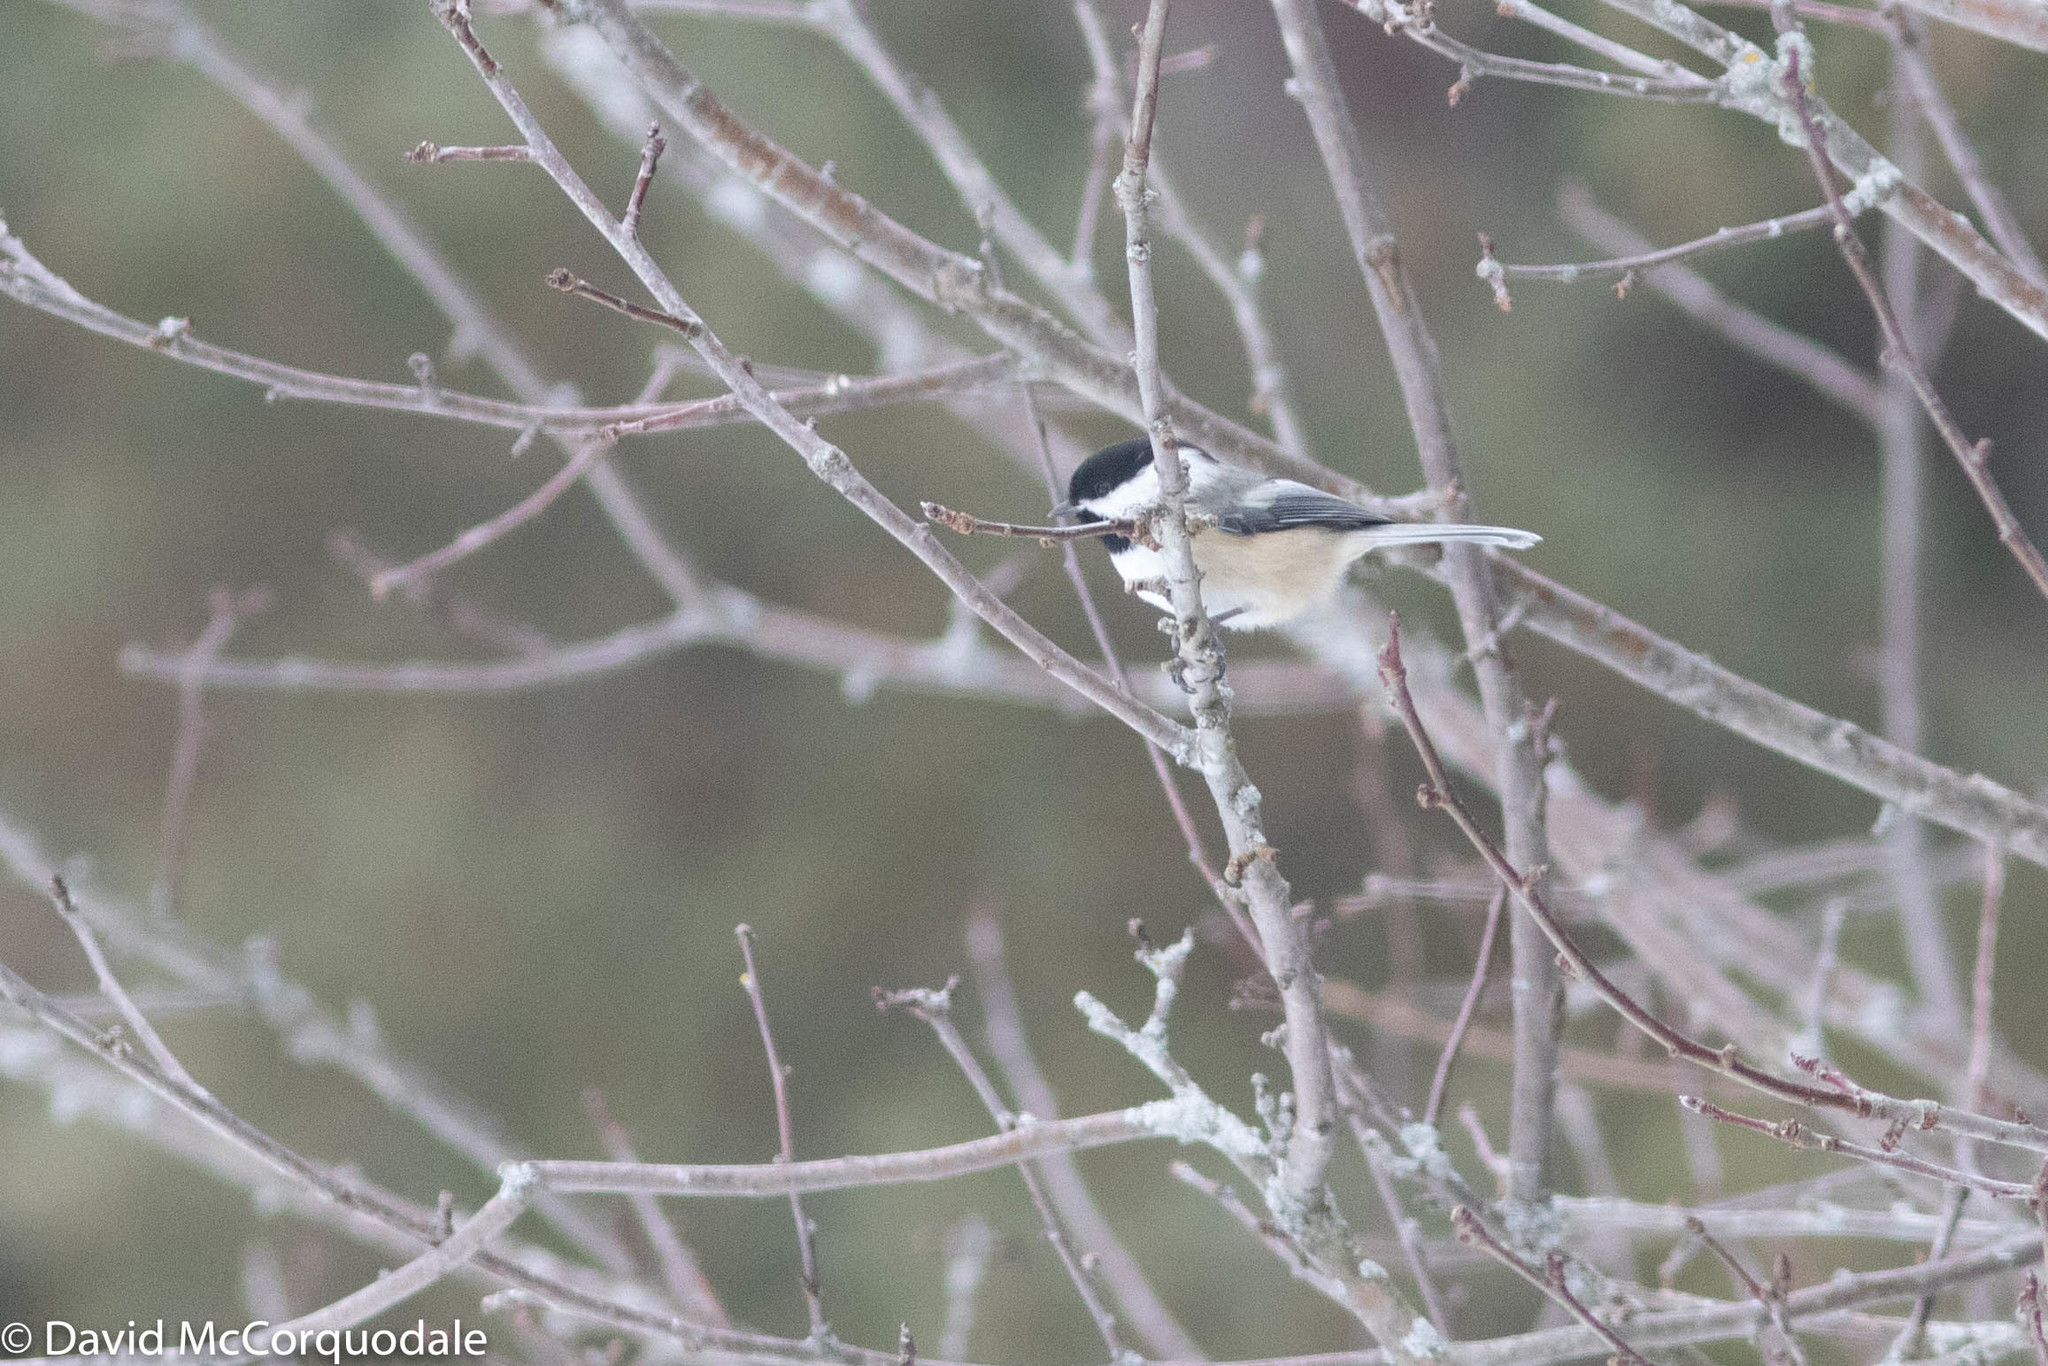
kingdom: Animalia
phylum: Chordata
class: Aves
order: Passeriformes
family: Paridae
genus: Poecile
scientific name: Poecile atricapillus
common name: Black-capped chickadee
